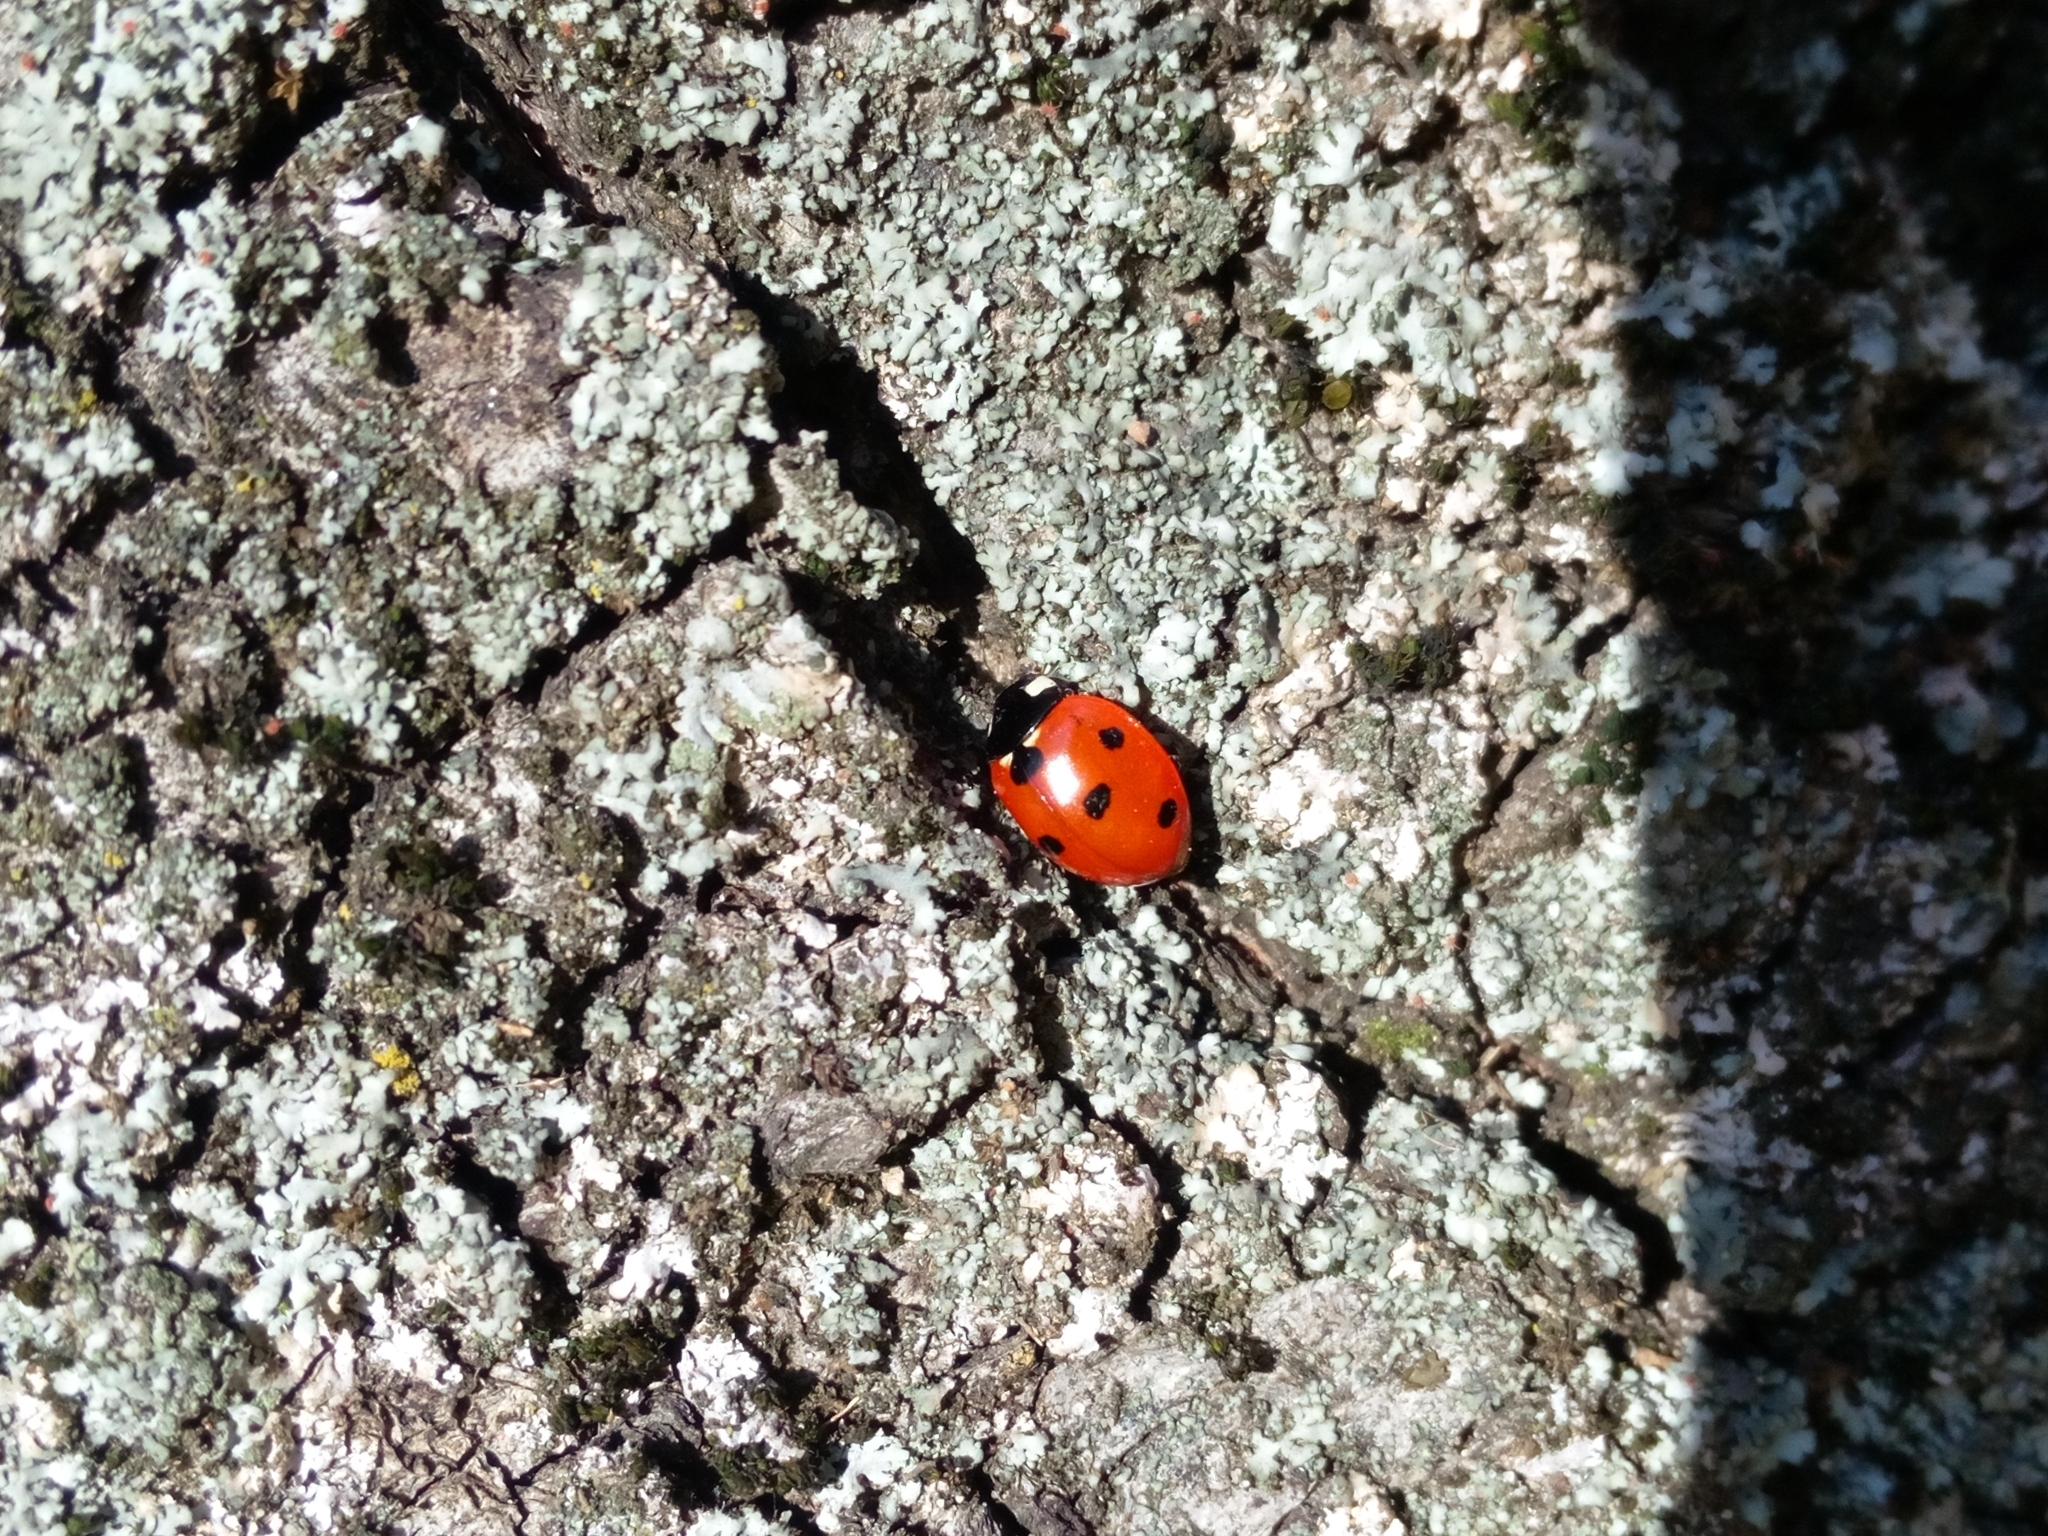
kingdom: Animalia
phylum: Arthropoda
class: Insecta
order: Coleoptera
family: Coccinellidae
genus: Coccinella
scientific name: Coccinella septempunctata
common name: Sevenspotted lady beetle
